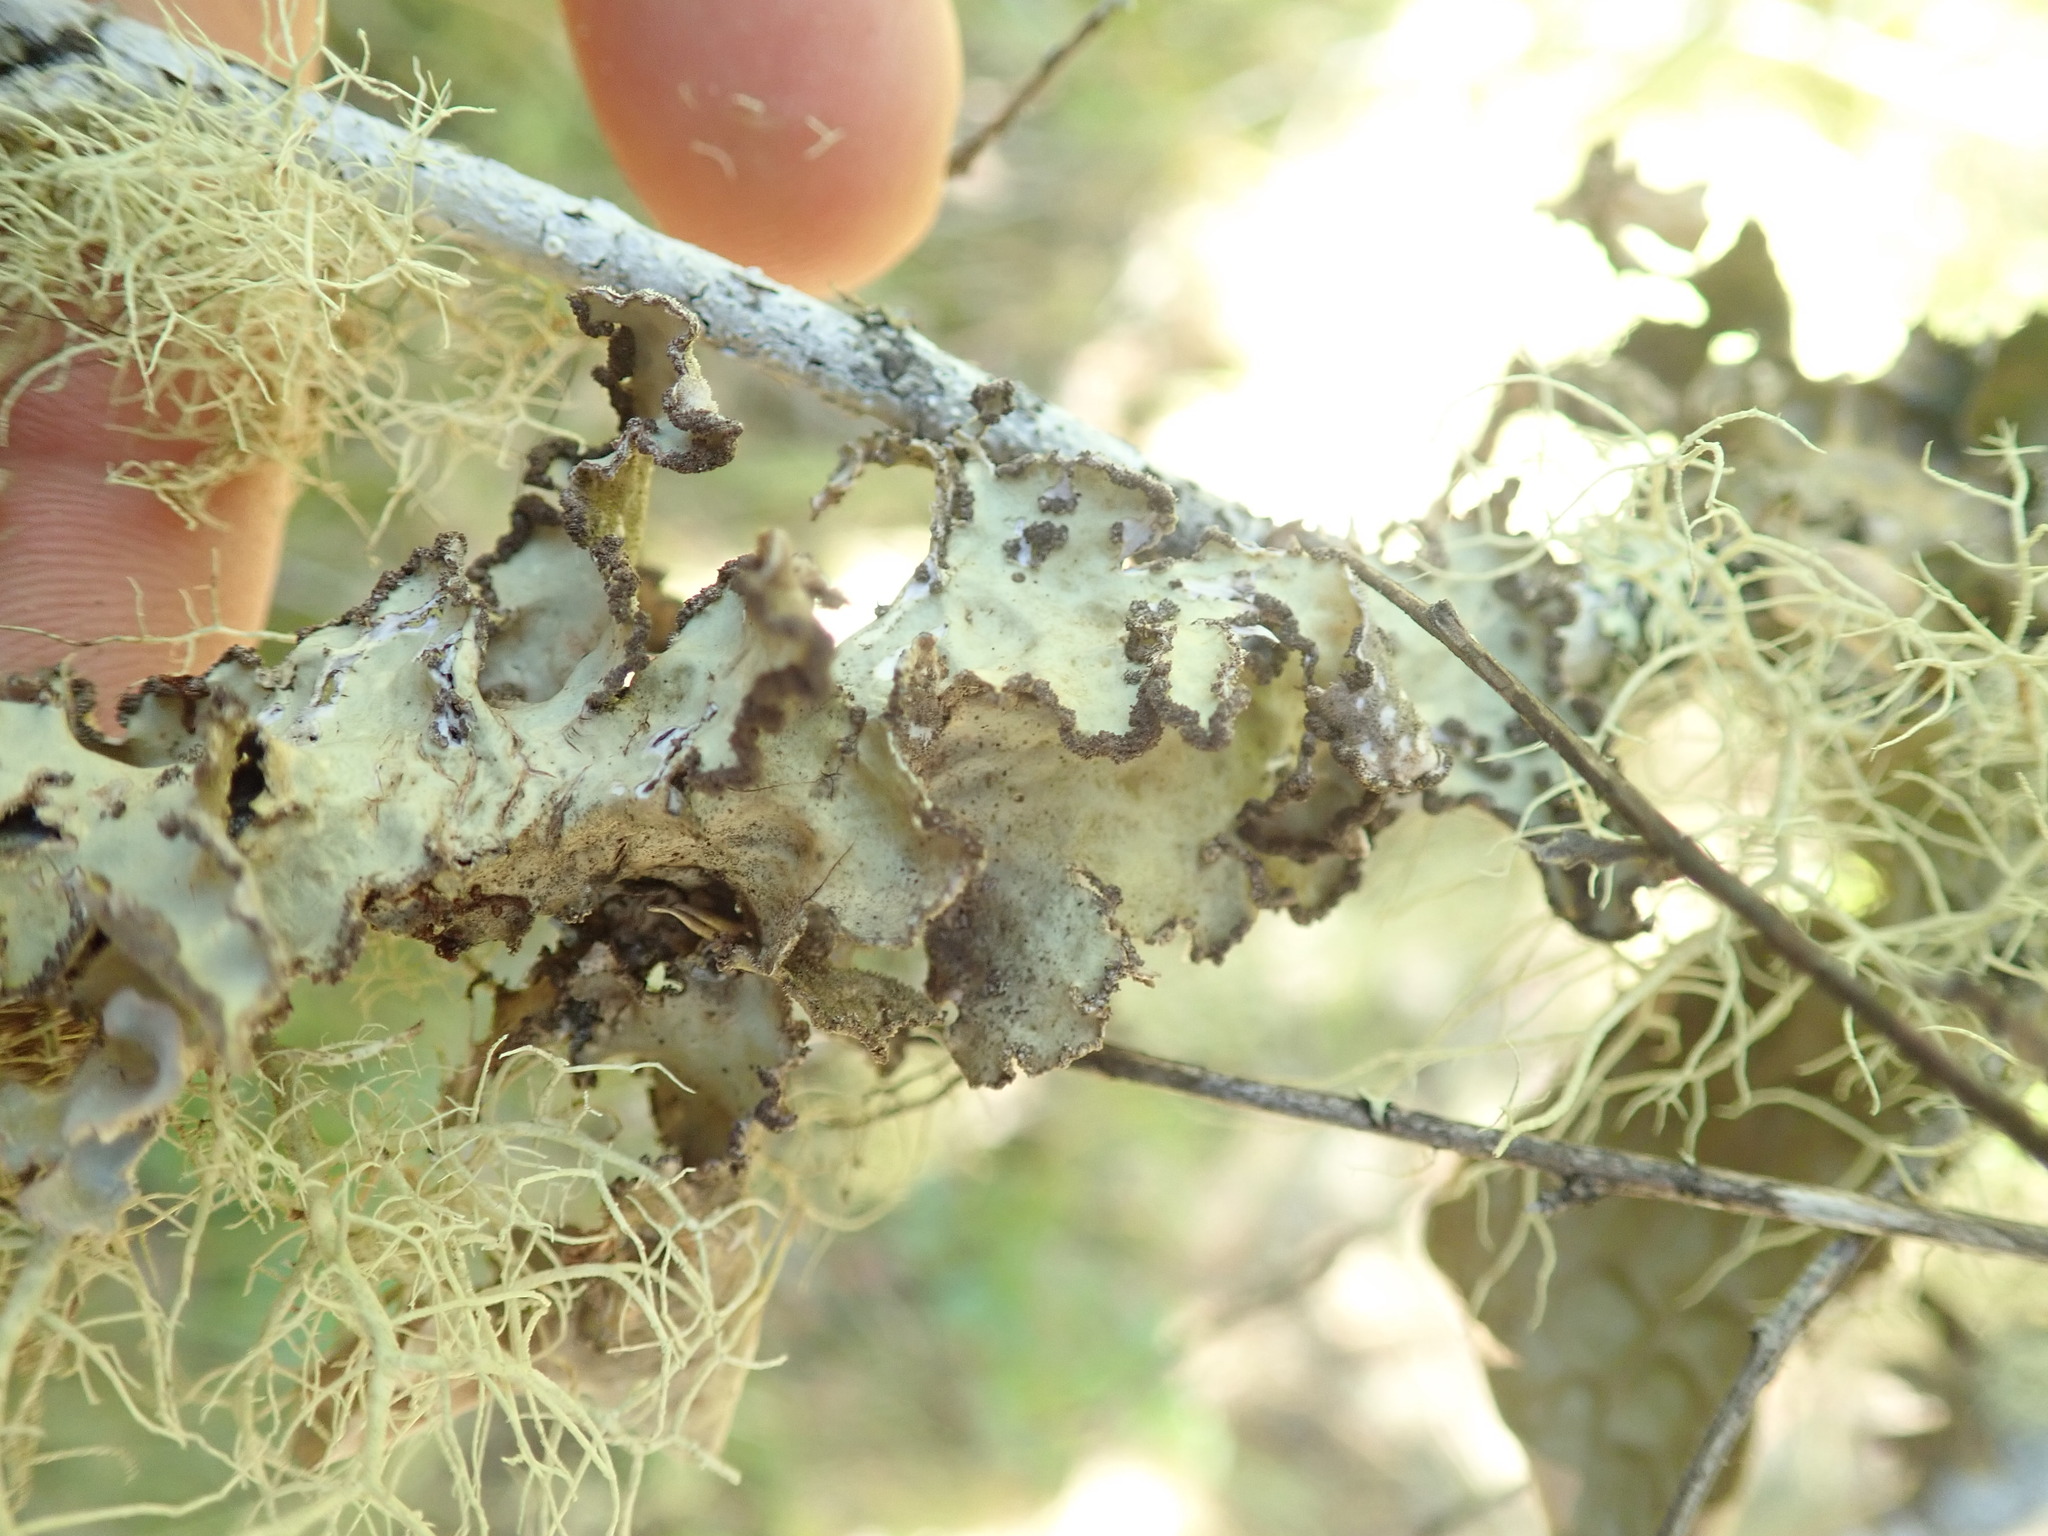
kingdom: Fungi
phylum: Ascomycota
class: Lecanoromycetes
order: Peltigerales
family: Lobariaceae
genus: Lobarina
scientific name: Lobarina scrobiculata
